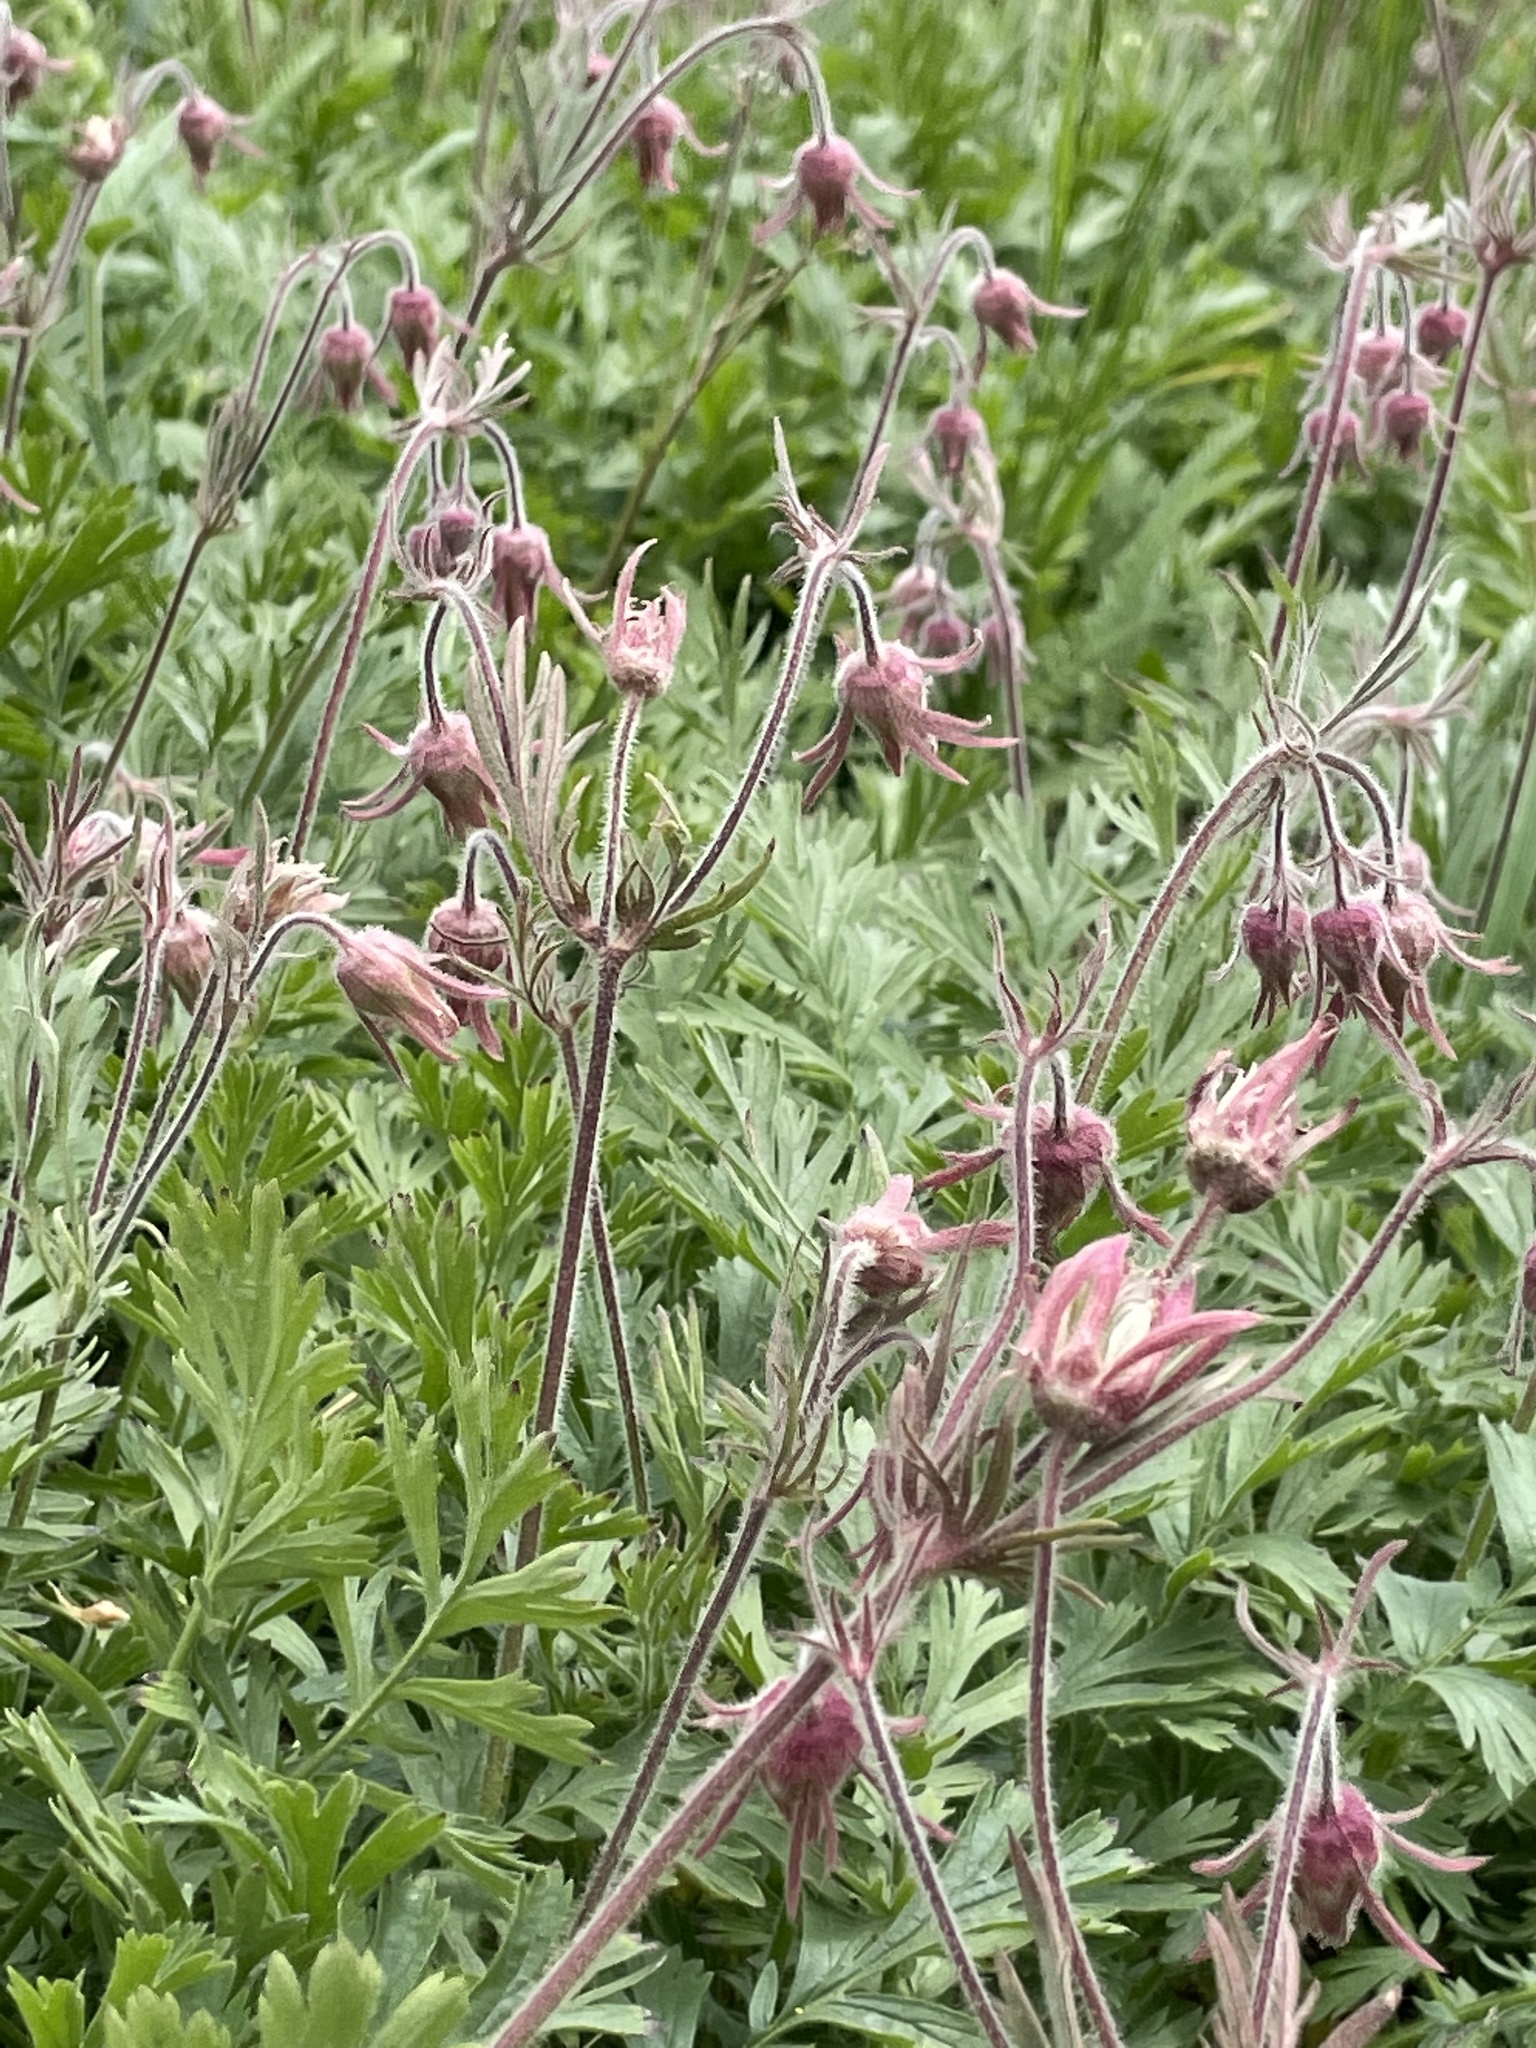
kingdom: Plantae
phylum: Tracheophyta
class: Magnoliopsida
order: Rosales
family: Rosaceae
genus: Geum
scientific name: Geum triflorum
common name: Old man's whiskers
